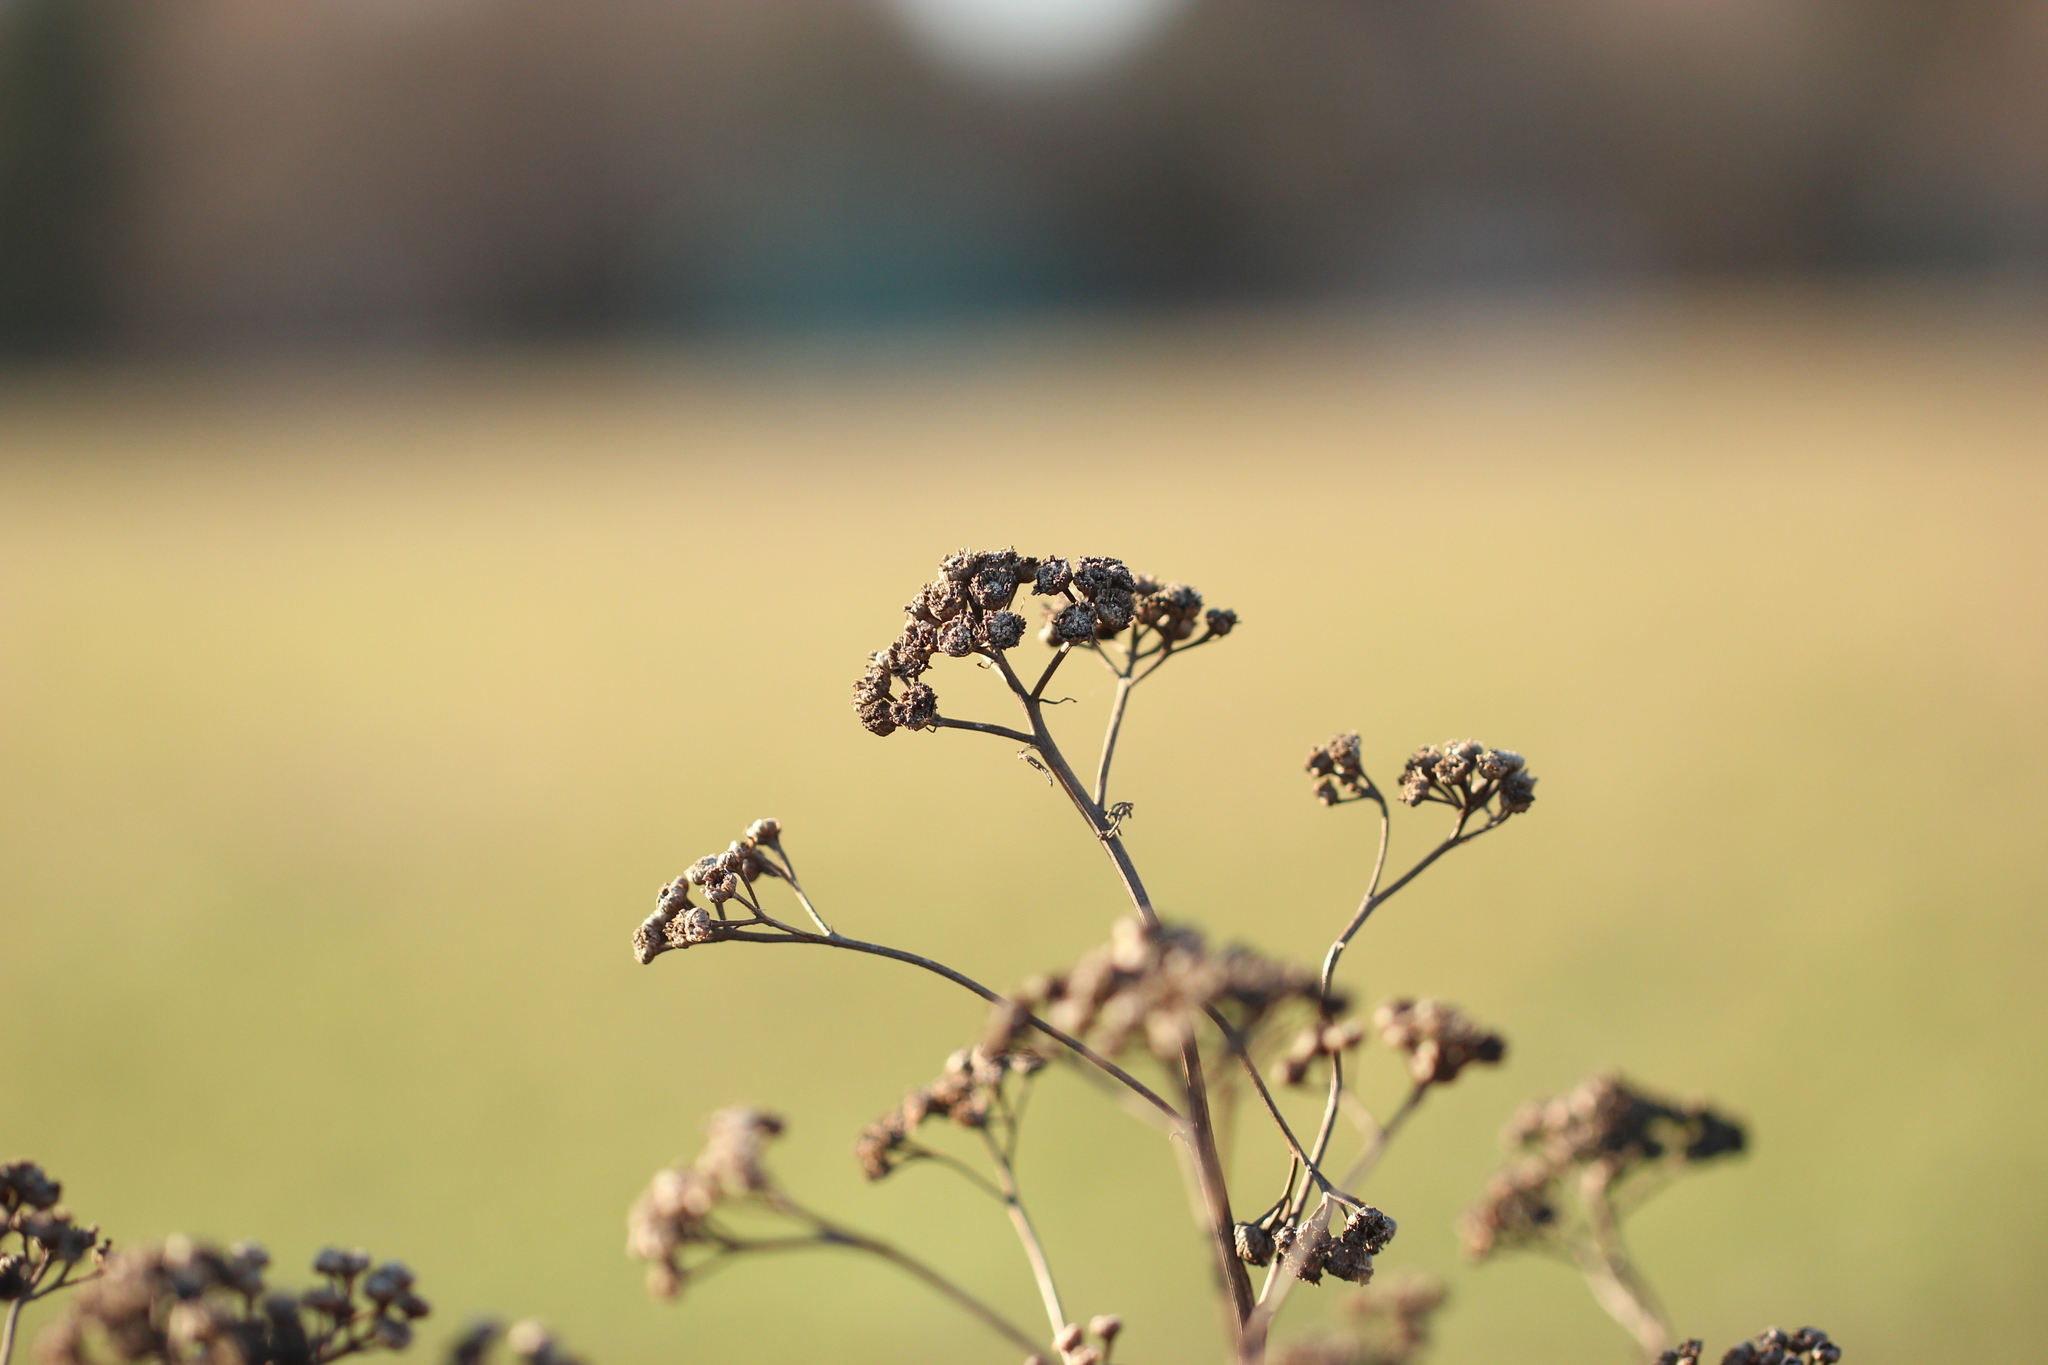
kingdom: Plantae
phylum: Tracheophyta
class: Magnoliopsida
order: Asterales
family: Asteraceae
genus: Tanacetum
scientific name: Tanacetum vulgare
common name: Common tansy
